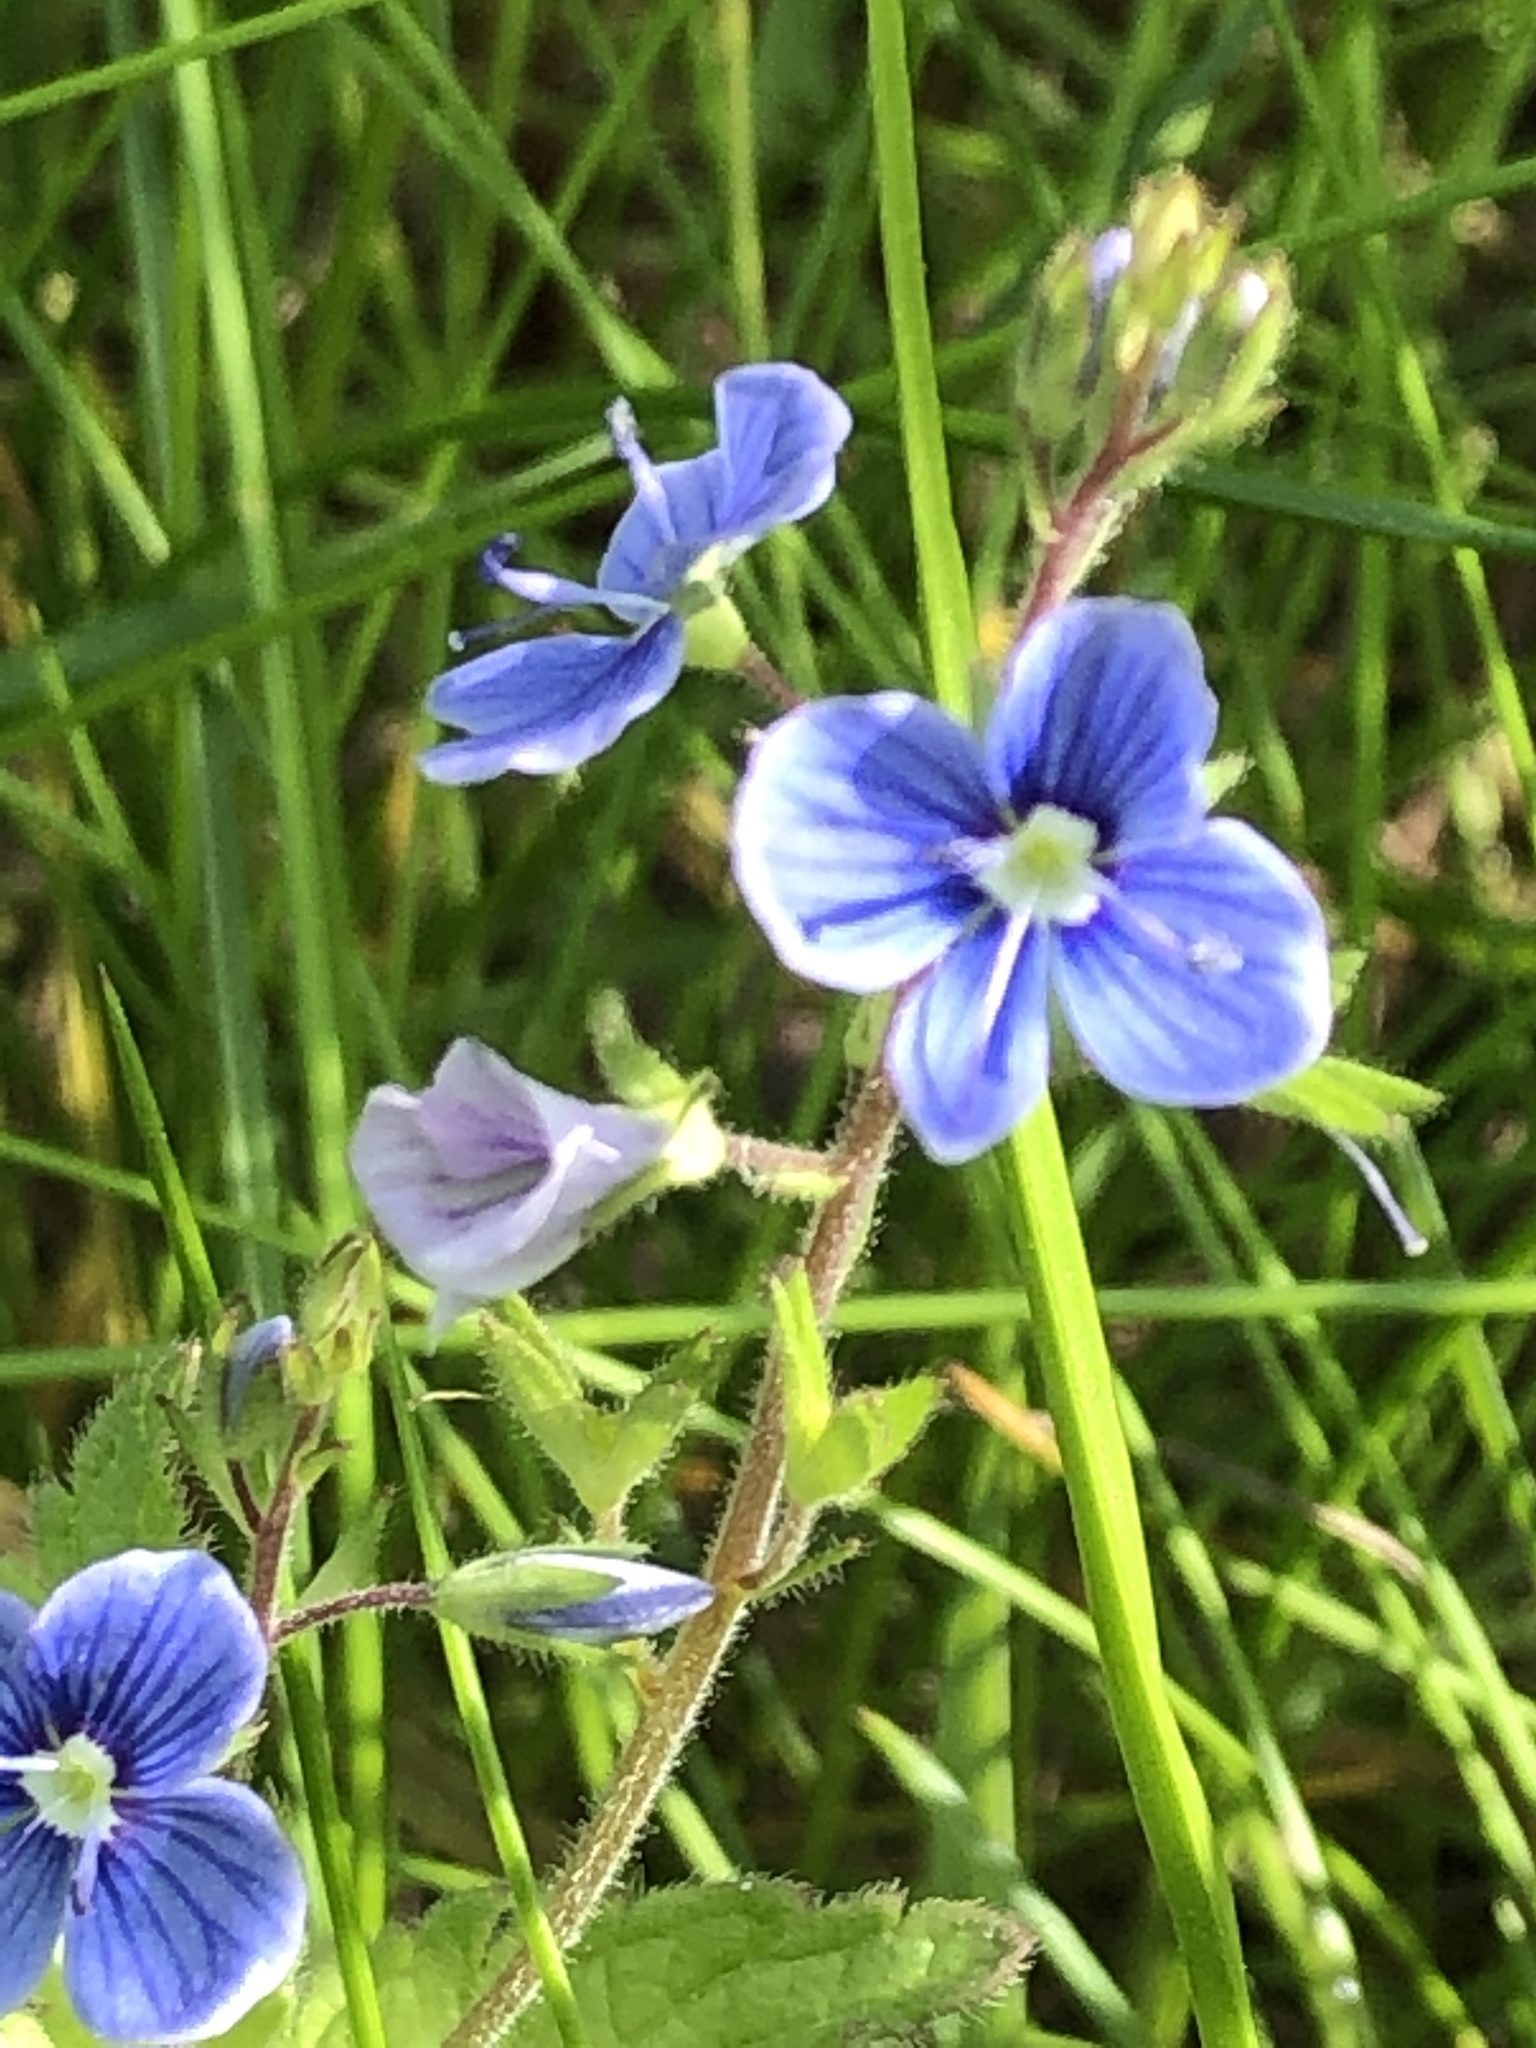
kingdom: Plantae
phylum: Tracheophyta
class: Magnoliopsida
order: Lamiales
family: Plantaginaceae
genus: Veronica
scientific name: Veronica chamaedrys
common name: Germander speedwell
